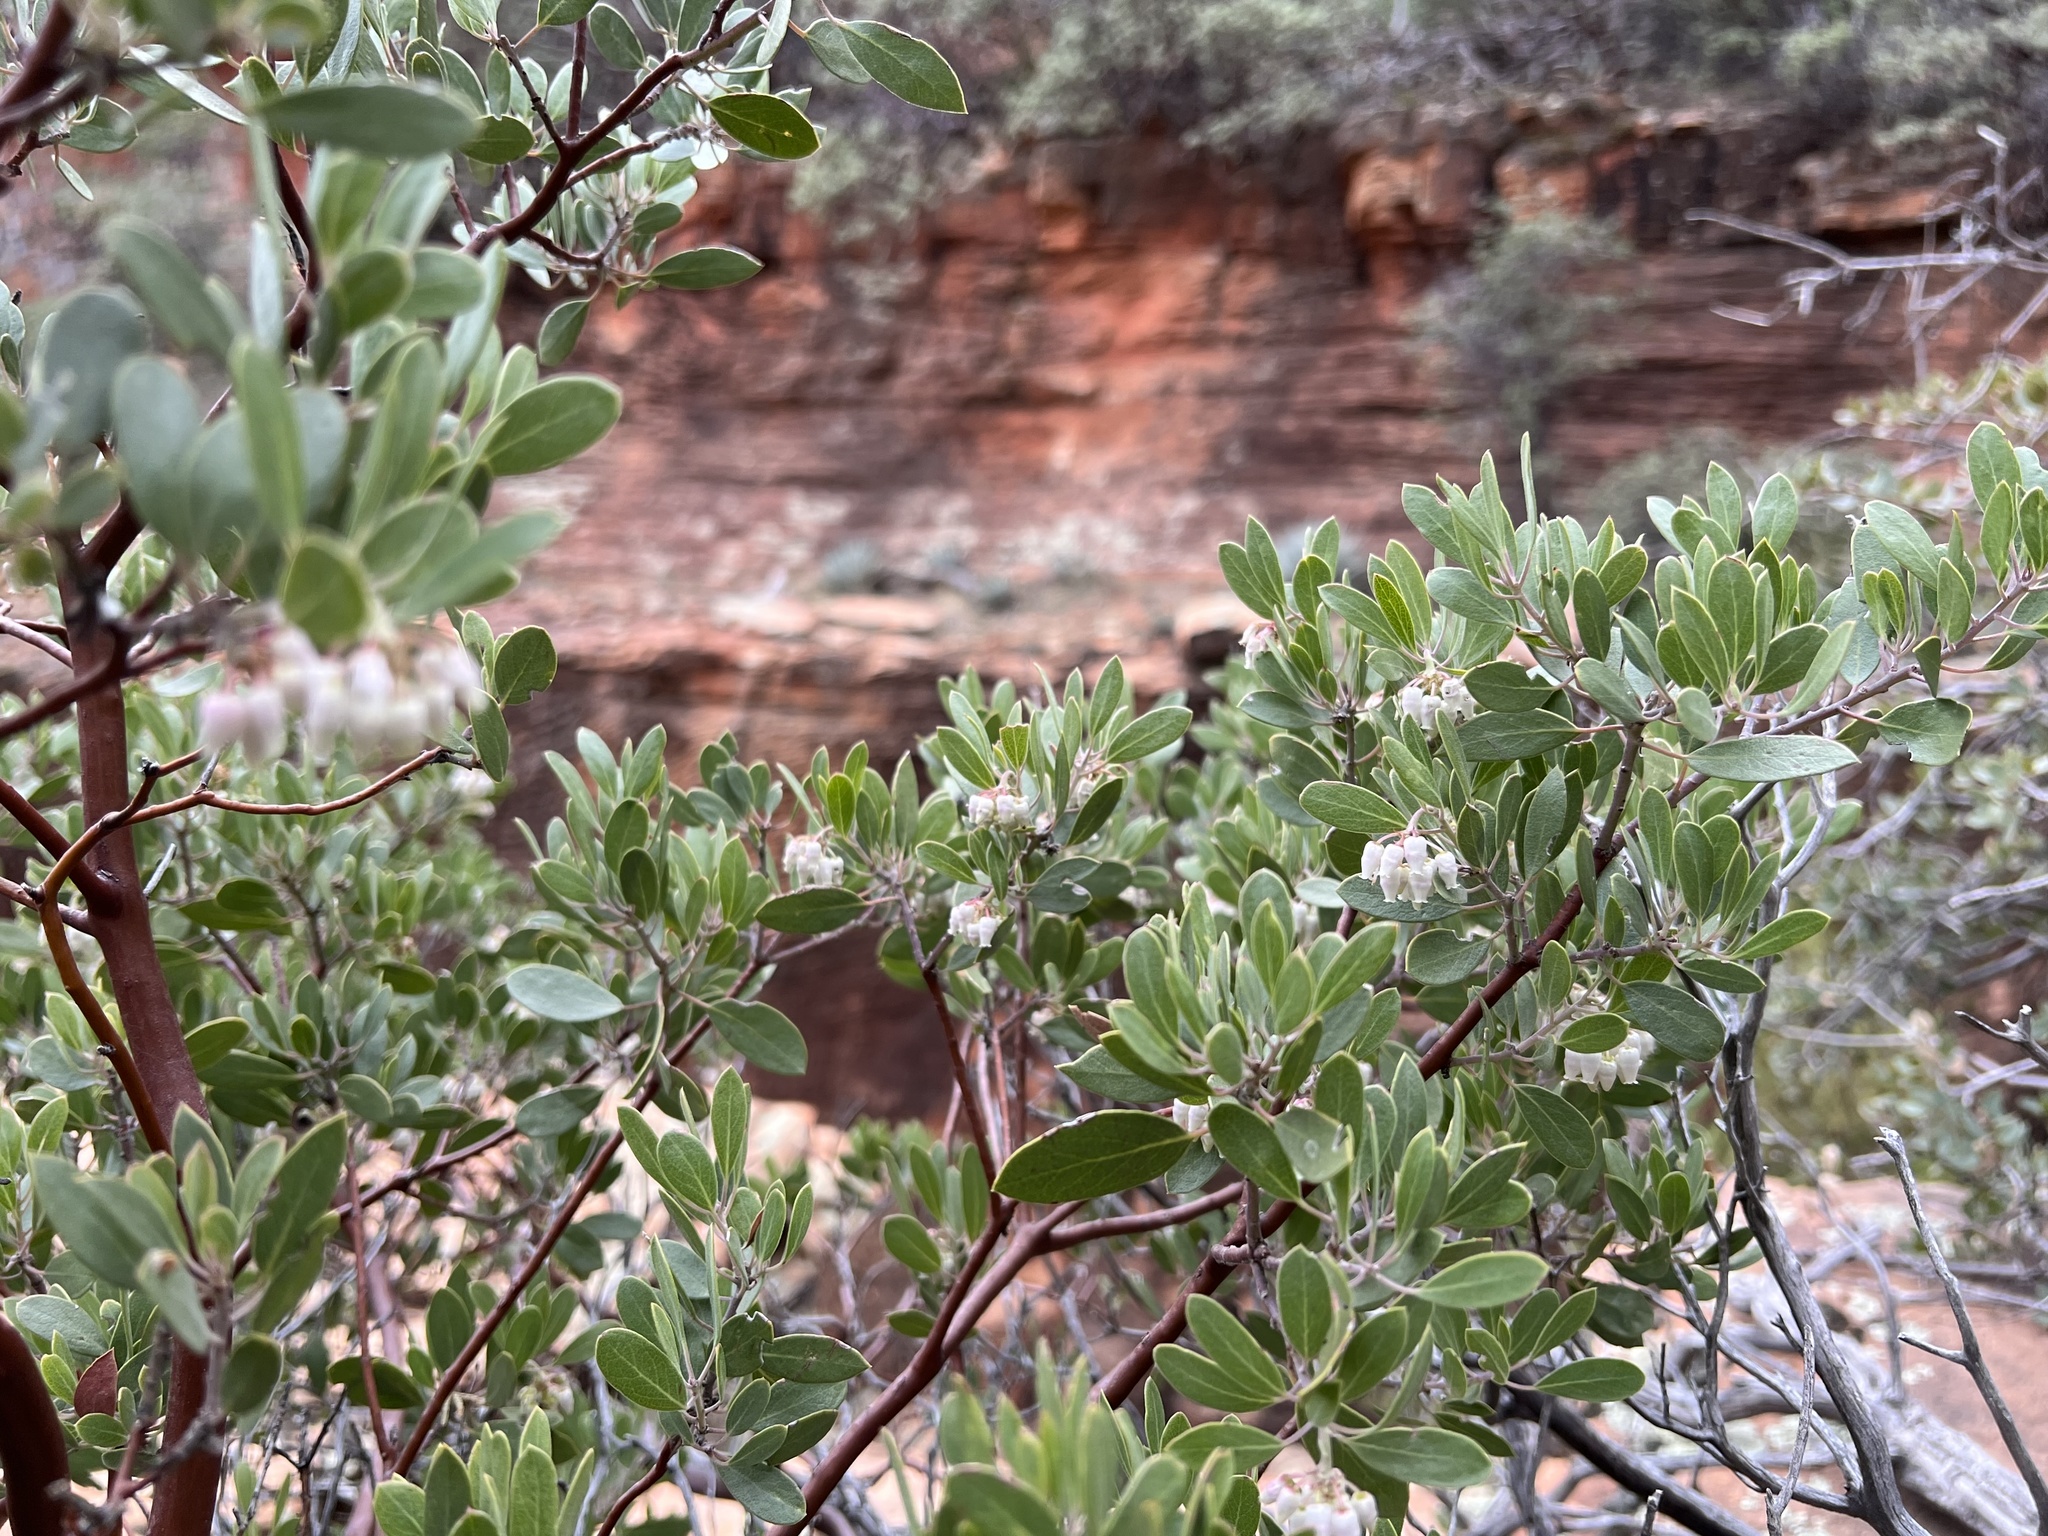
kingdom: Plantae
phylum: Tracheophyta
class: Magnoliopsida
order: Ericales
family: Ericaceae
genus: Arctostaphylos
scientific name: Arctostaphylos pungens
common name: Mexican manzanita
